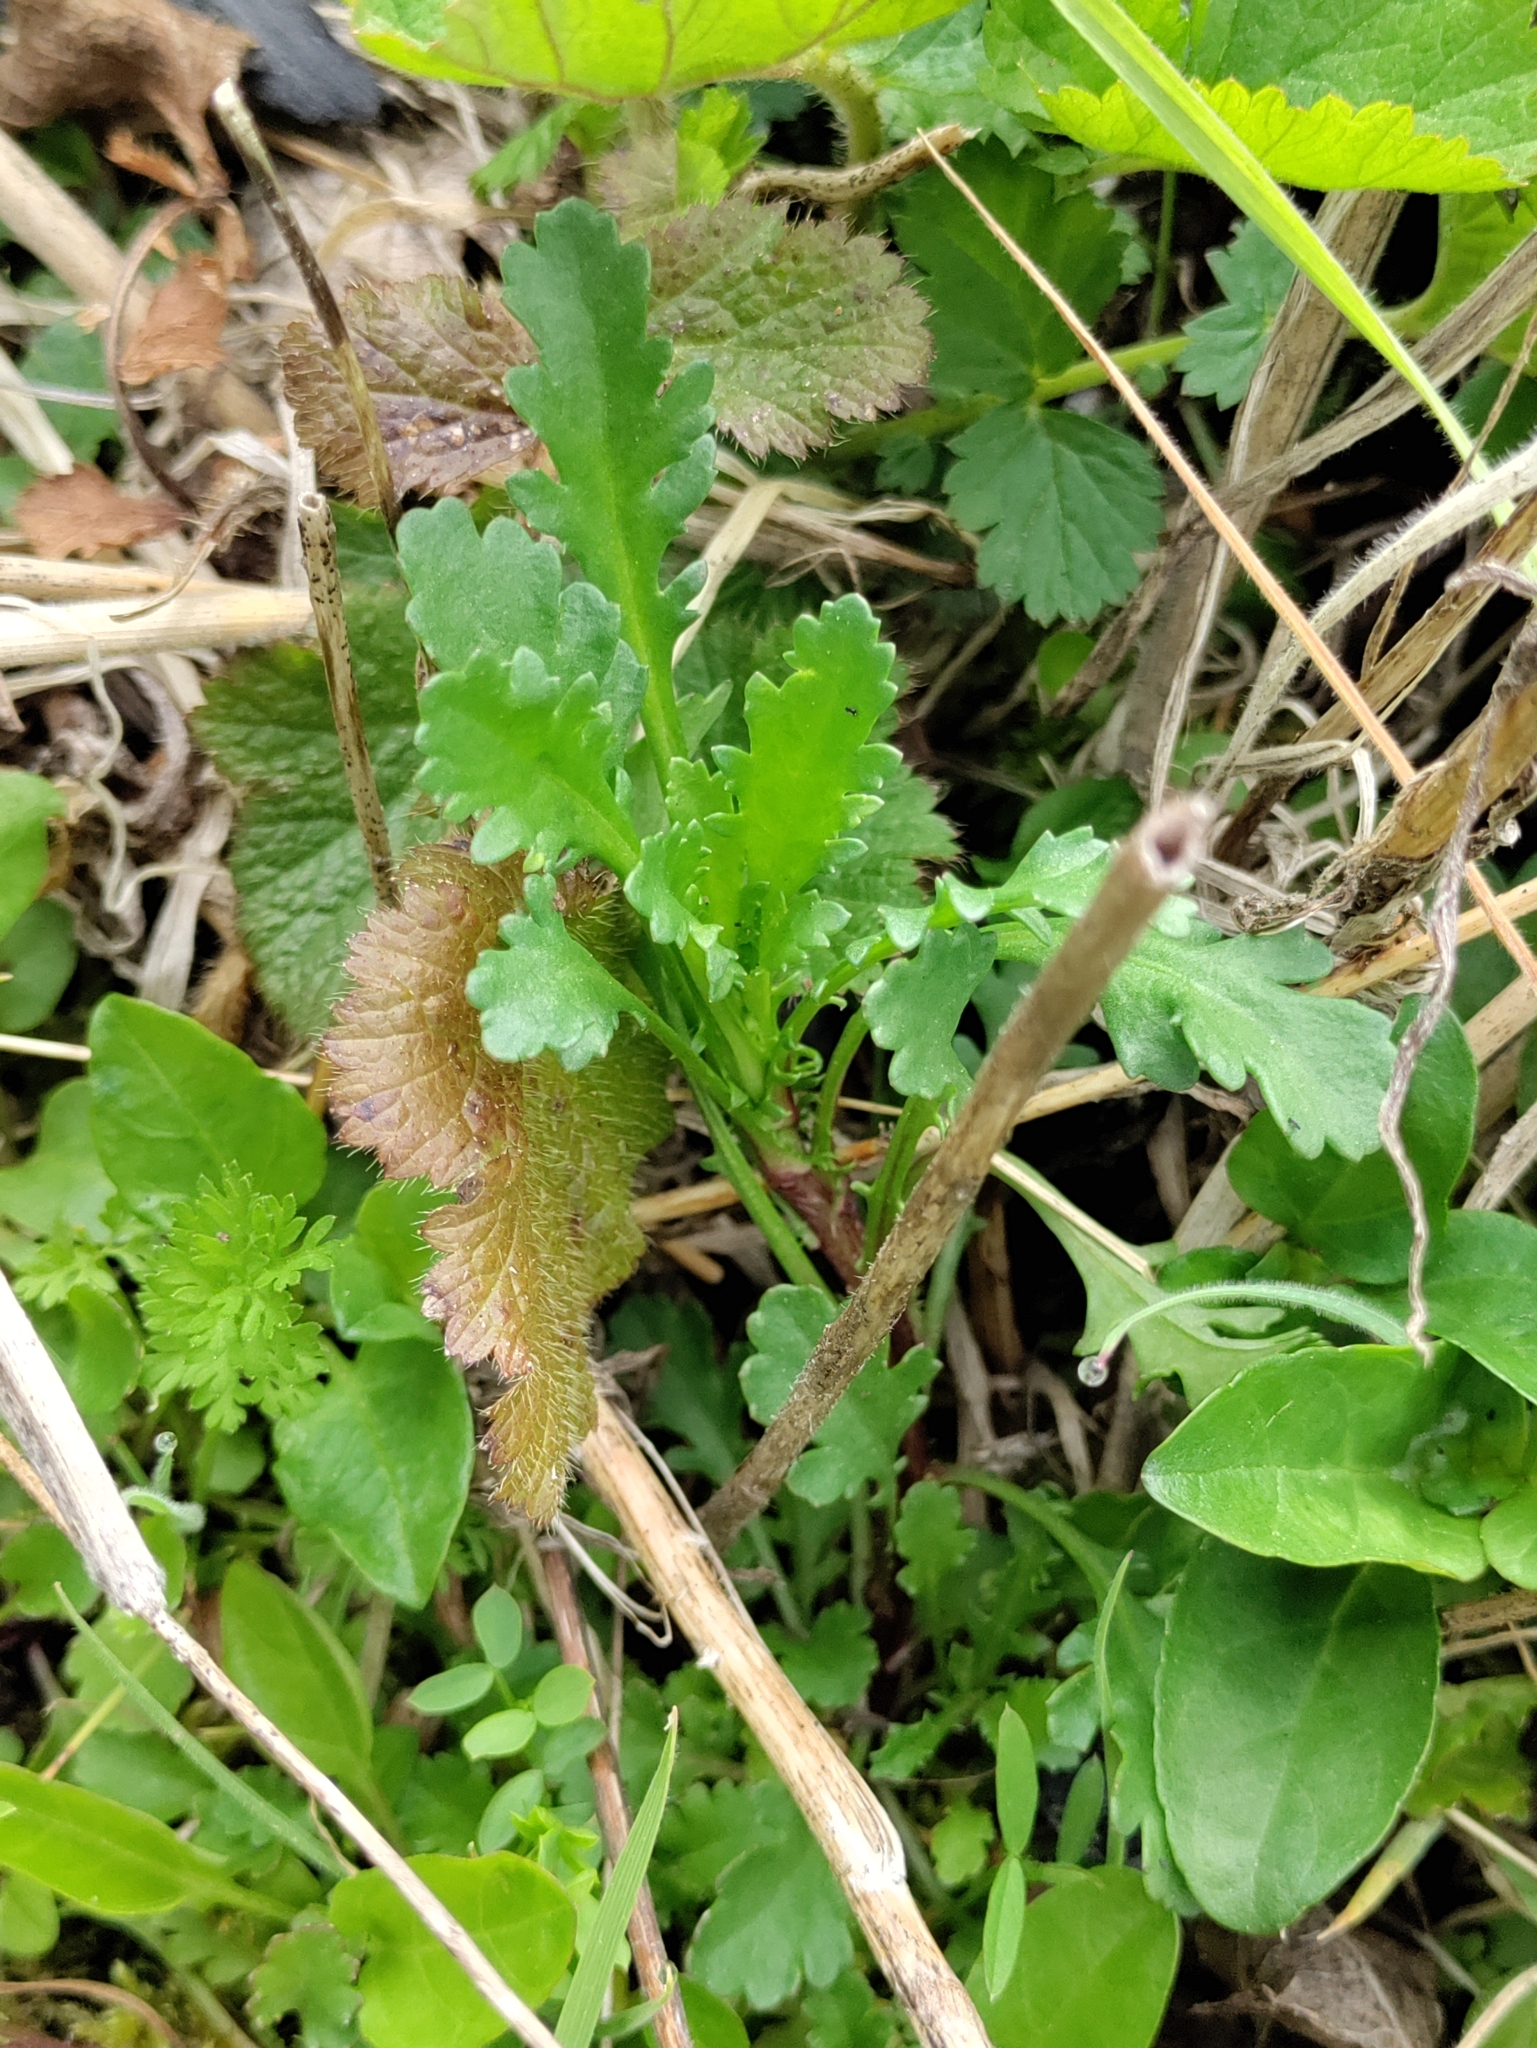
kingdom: Plantae
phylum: Tracheophyta
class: Magnoliopsida
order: Asterales
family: Asteraceae
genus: Leucanthemum
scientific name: Leucanthemum vulgare
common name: Oxeye daisy
